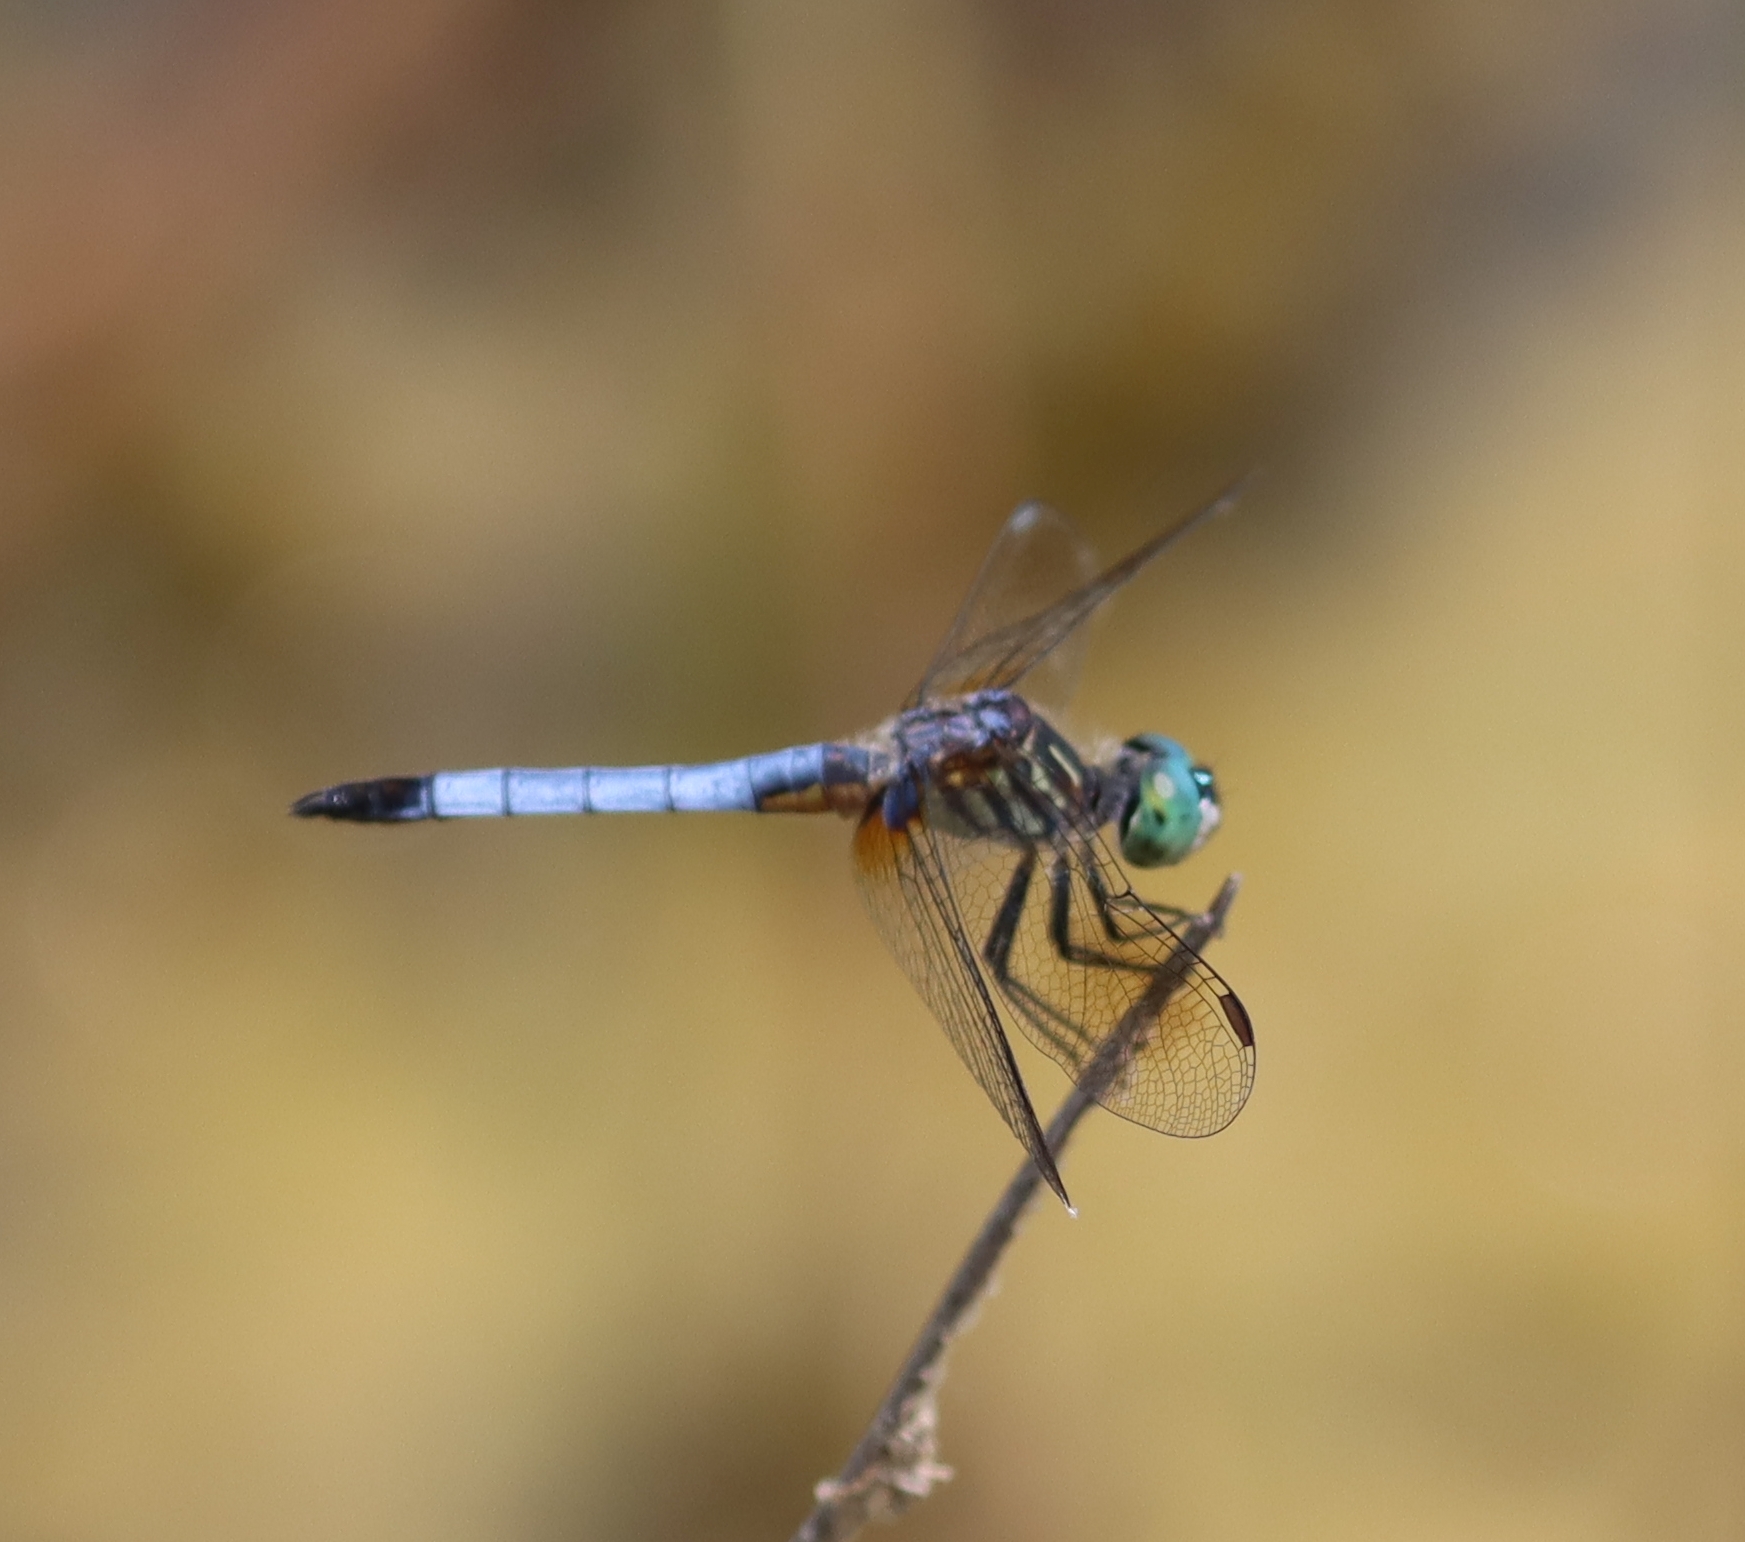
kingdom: Animalia
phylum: Arthropoda
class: Insecta
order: Odonata
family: Libellulidae
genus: Pachydiplax
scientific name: Pachydiplax longipennis
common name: Blue dasher
